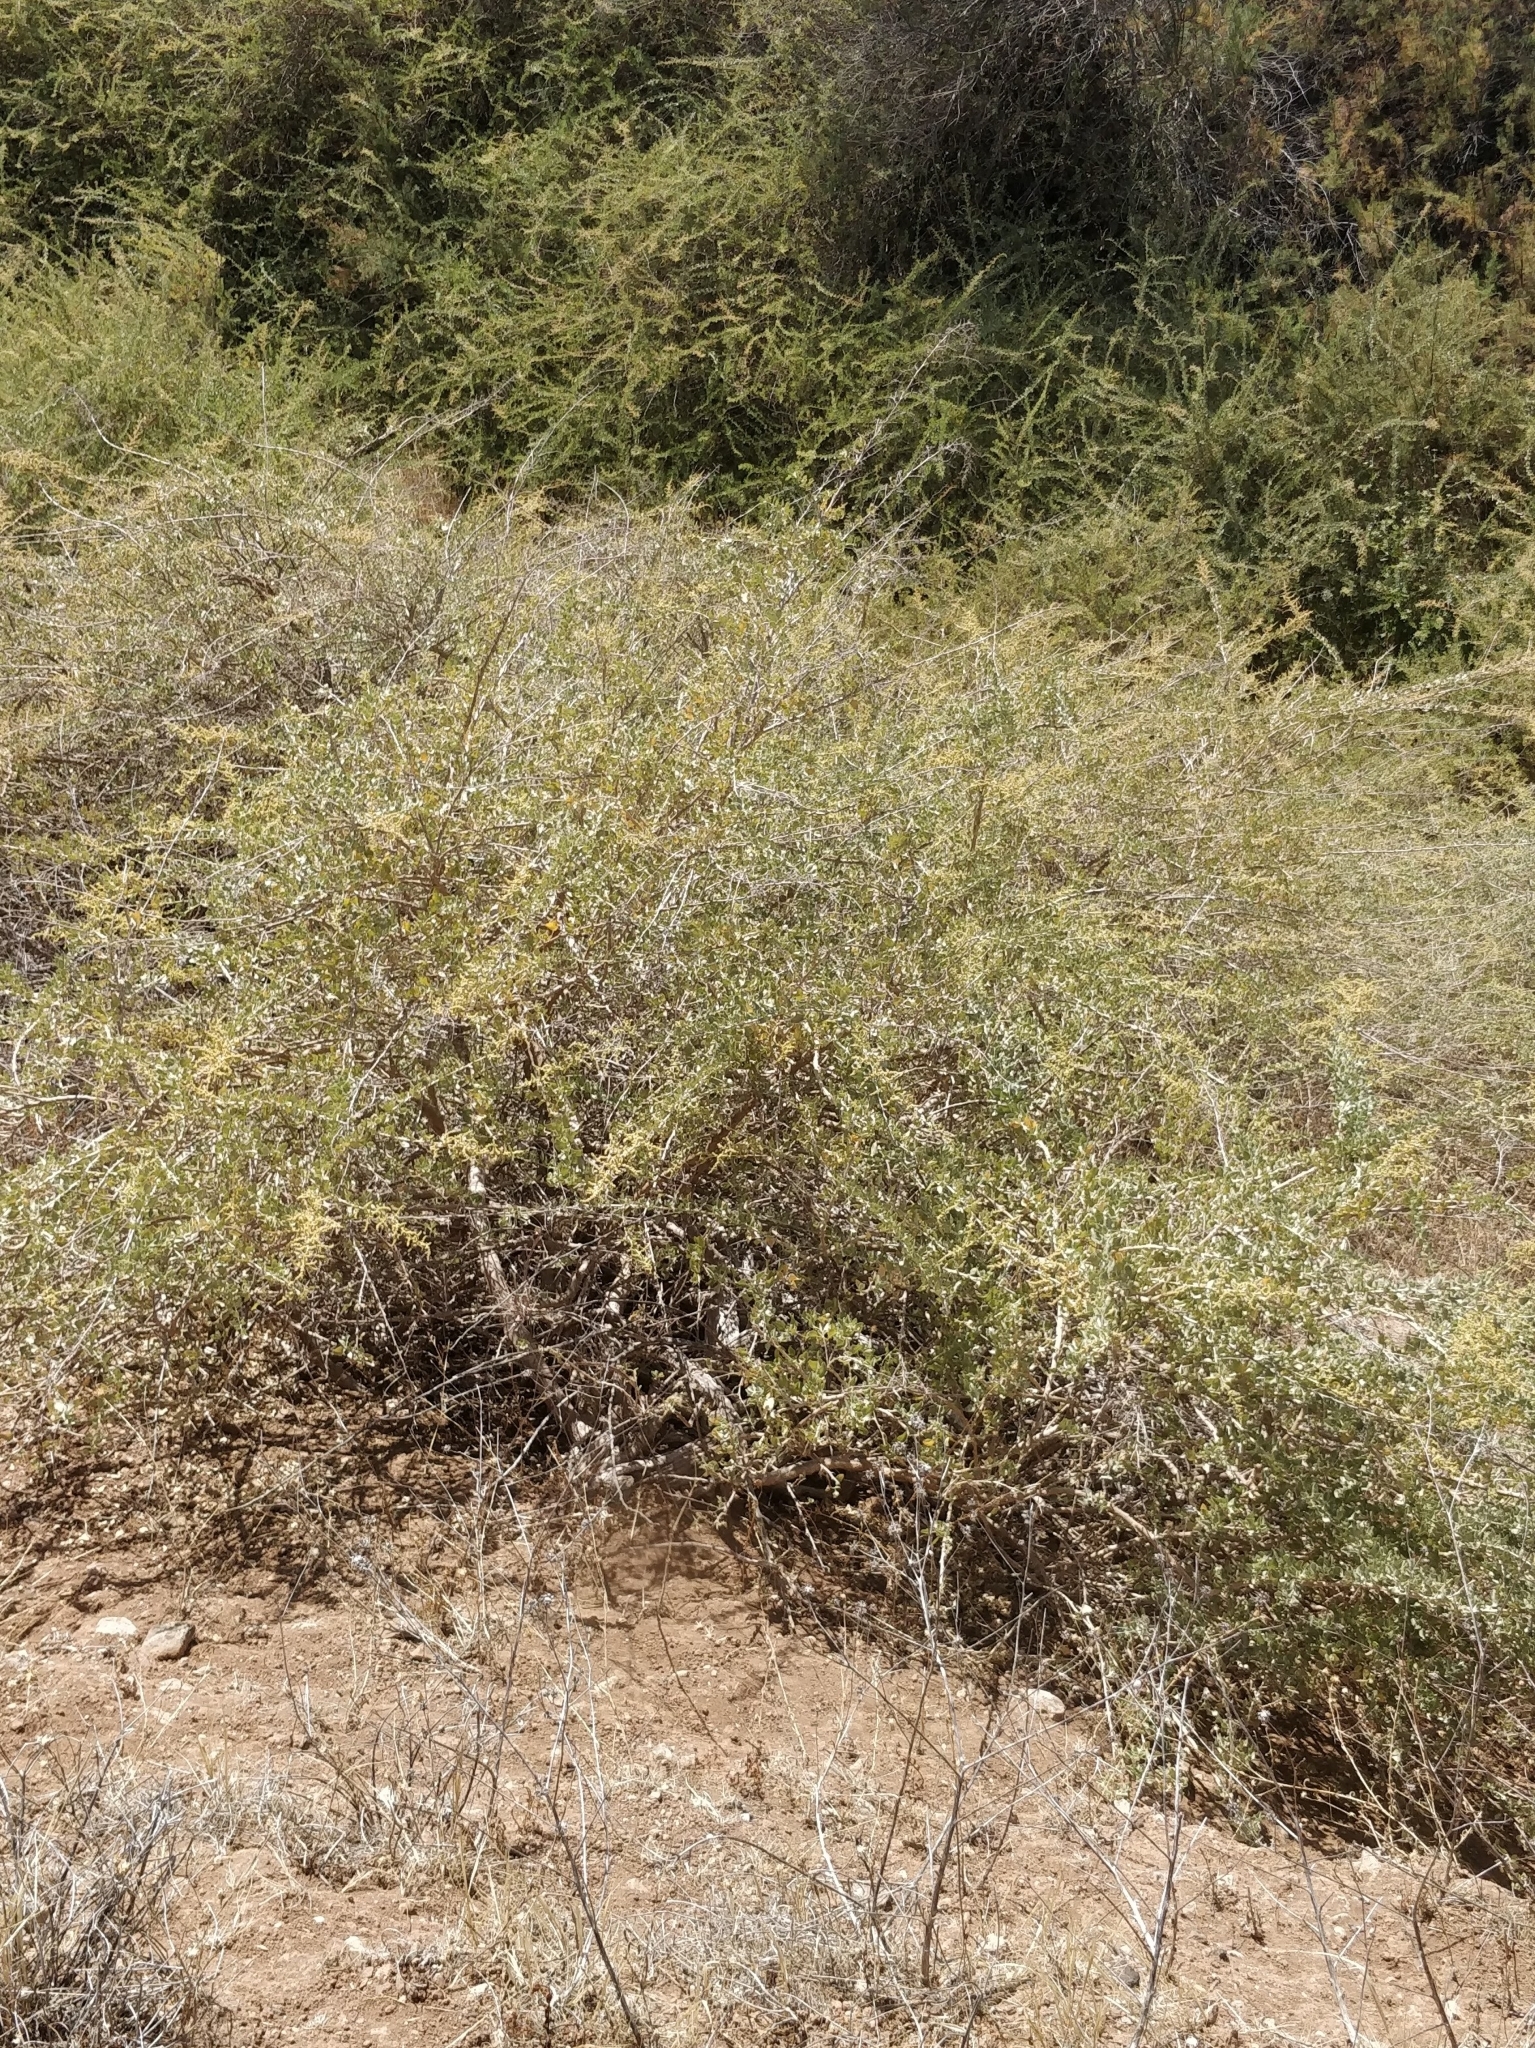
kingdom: Plantae
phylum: Tracheophyta
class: Magnoliopsida
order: Caryophyllales
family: Amaranthaceae
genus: Atriplex
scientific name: Atriplex halimus
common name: Shrubby orache
